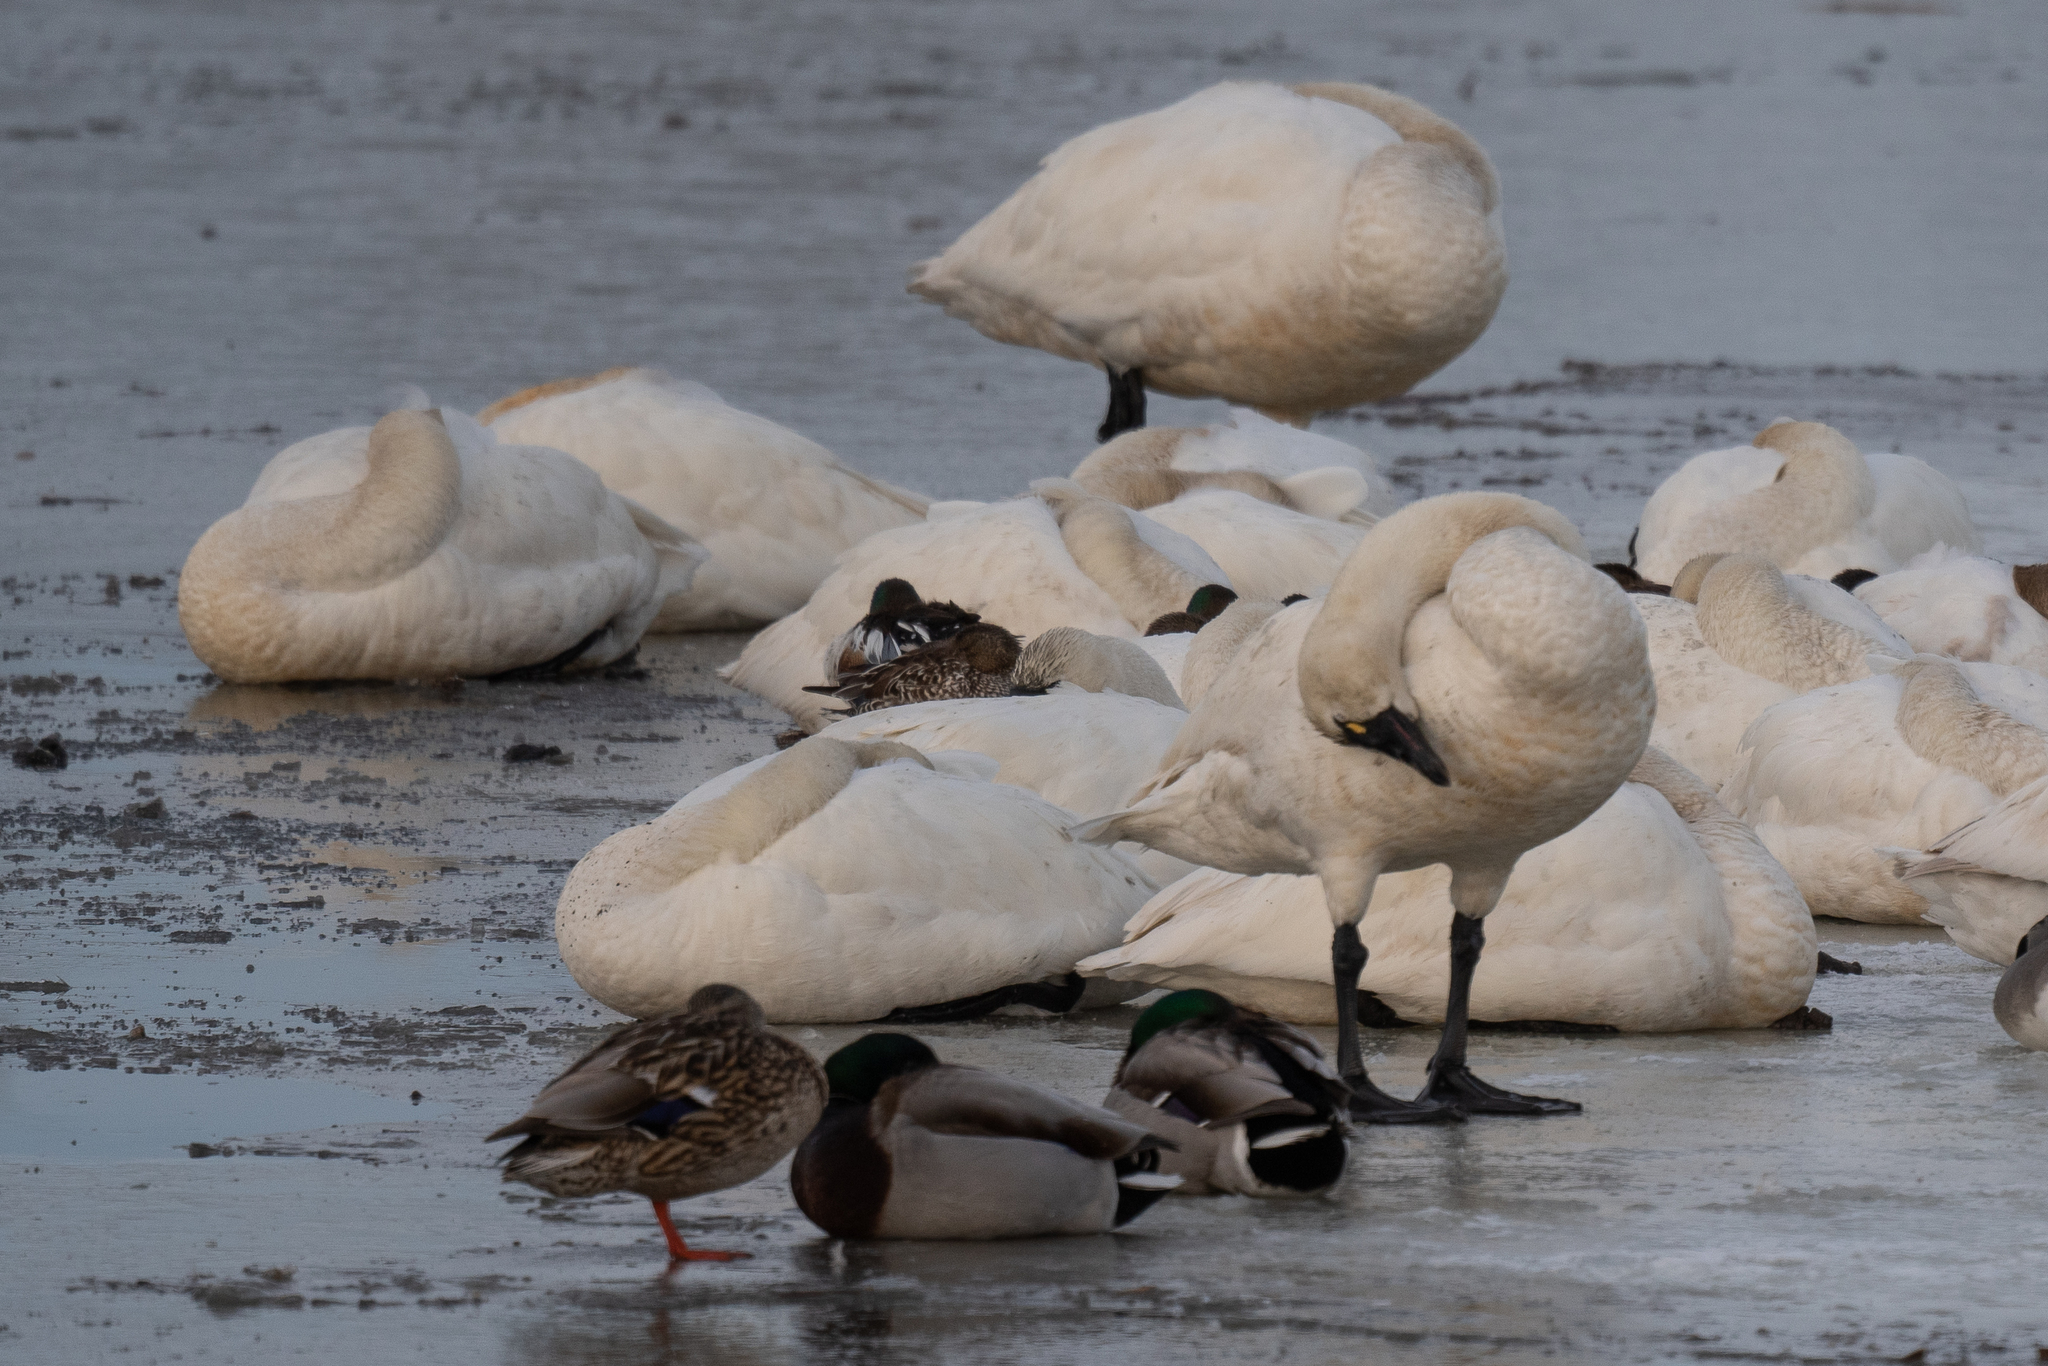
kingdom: Animalia
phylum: Chordata
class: Aves
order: Anseriformes
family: Anatidae
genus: Cygnus
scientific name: Cygnus columbianus
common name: Tundra swan
